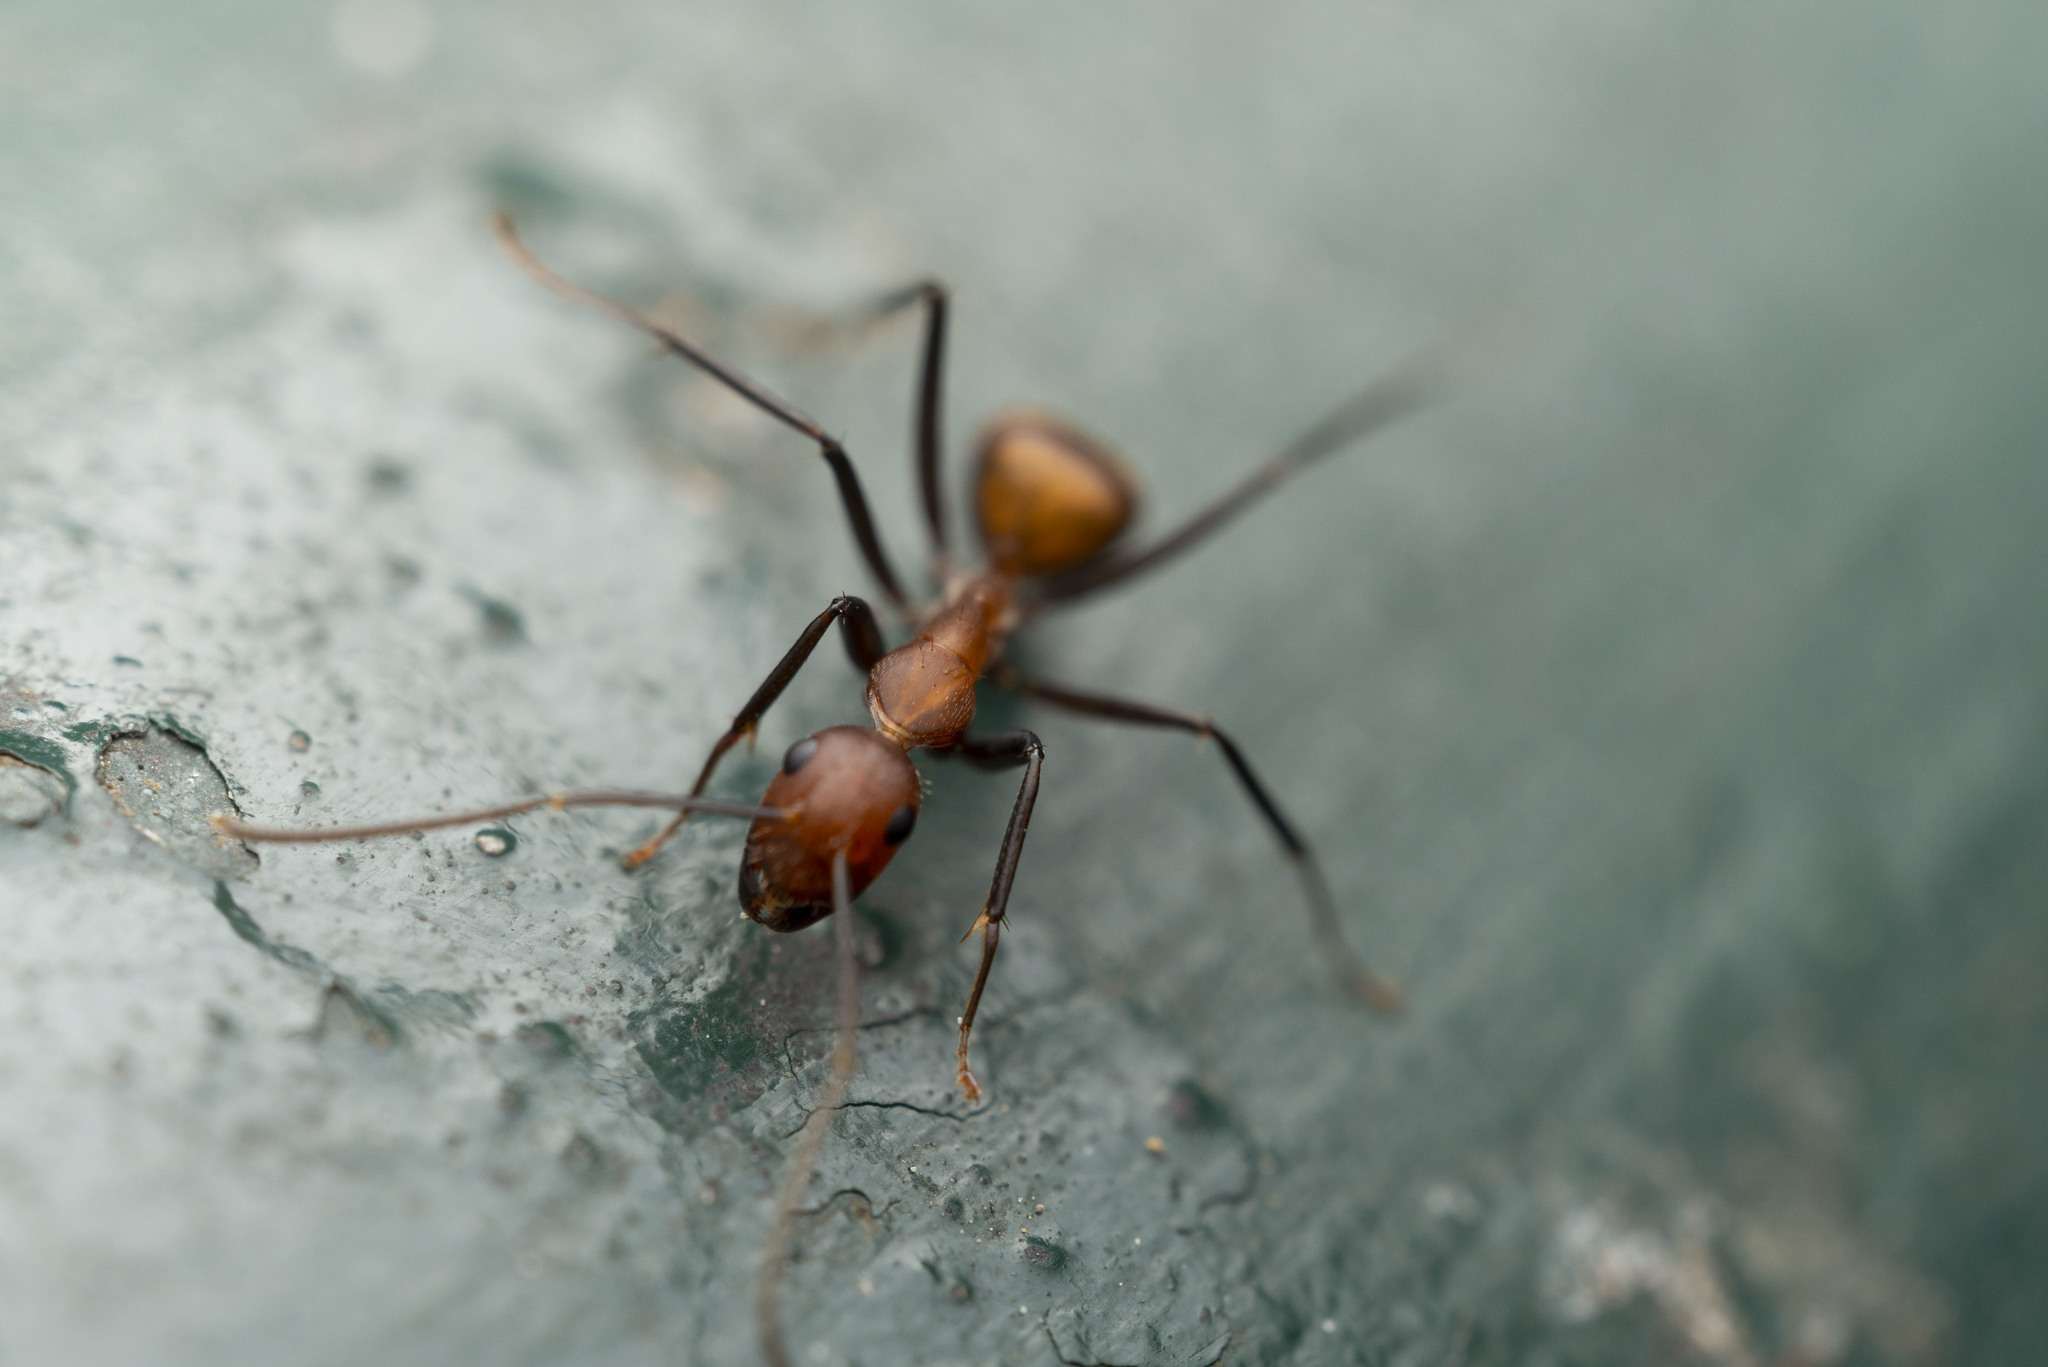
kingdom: Animalia
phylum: Arthropoda
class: Insecta
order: Hymenoptera
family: Formicidae
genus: Camponotus
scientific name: Camponotus nicobarensis
